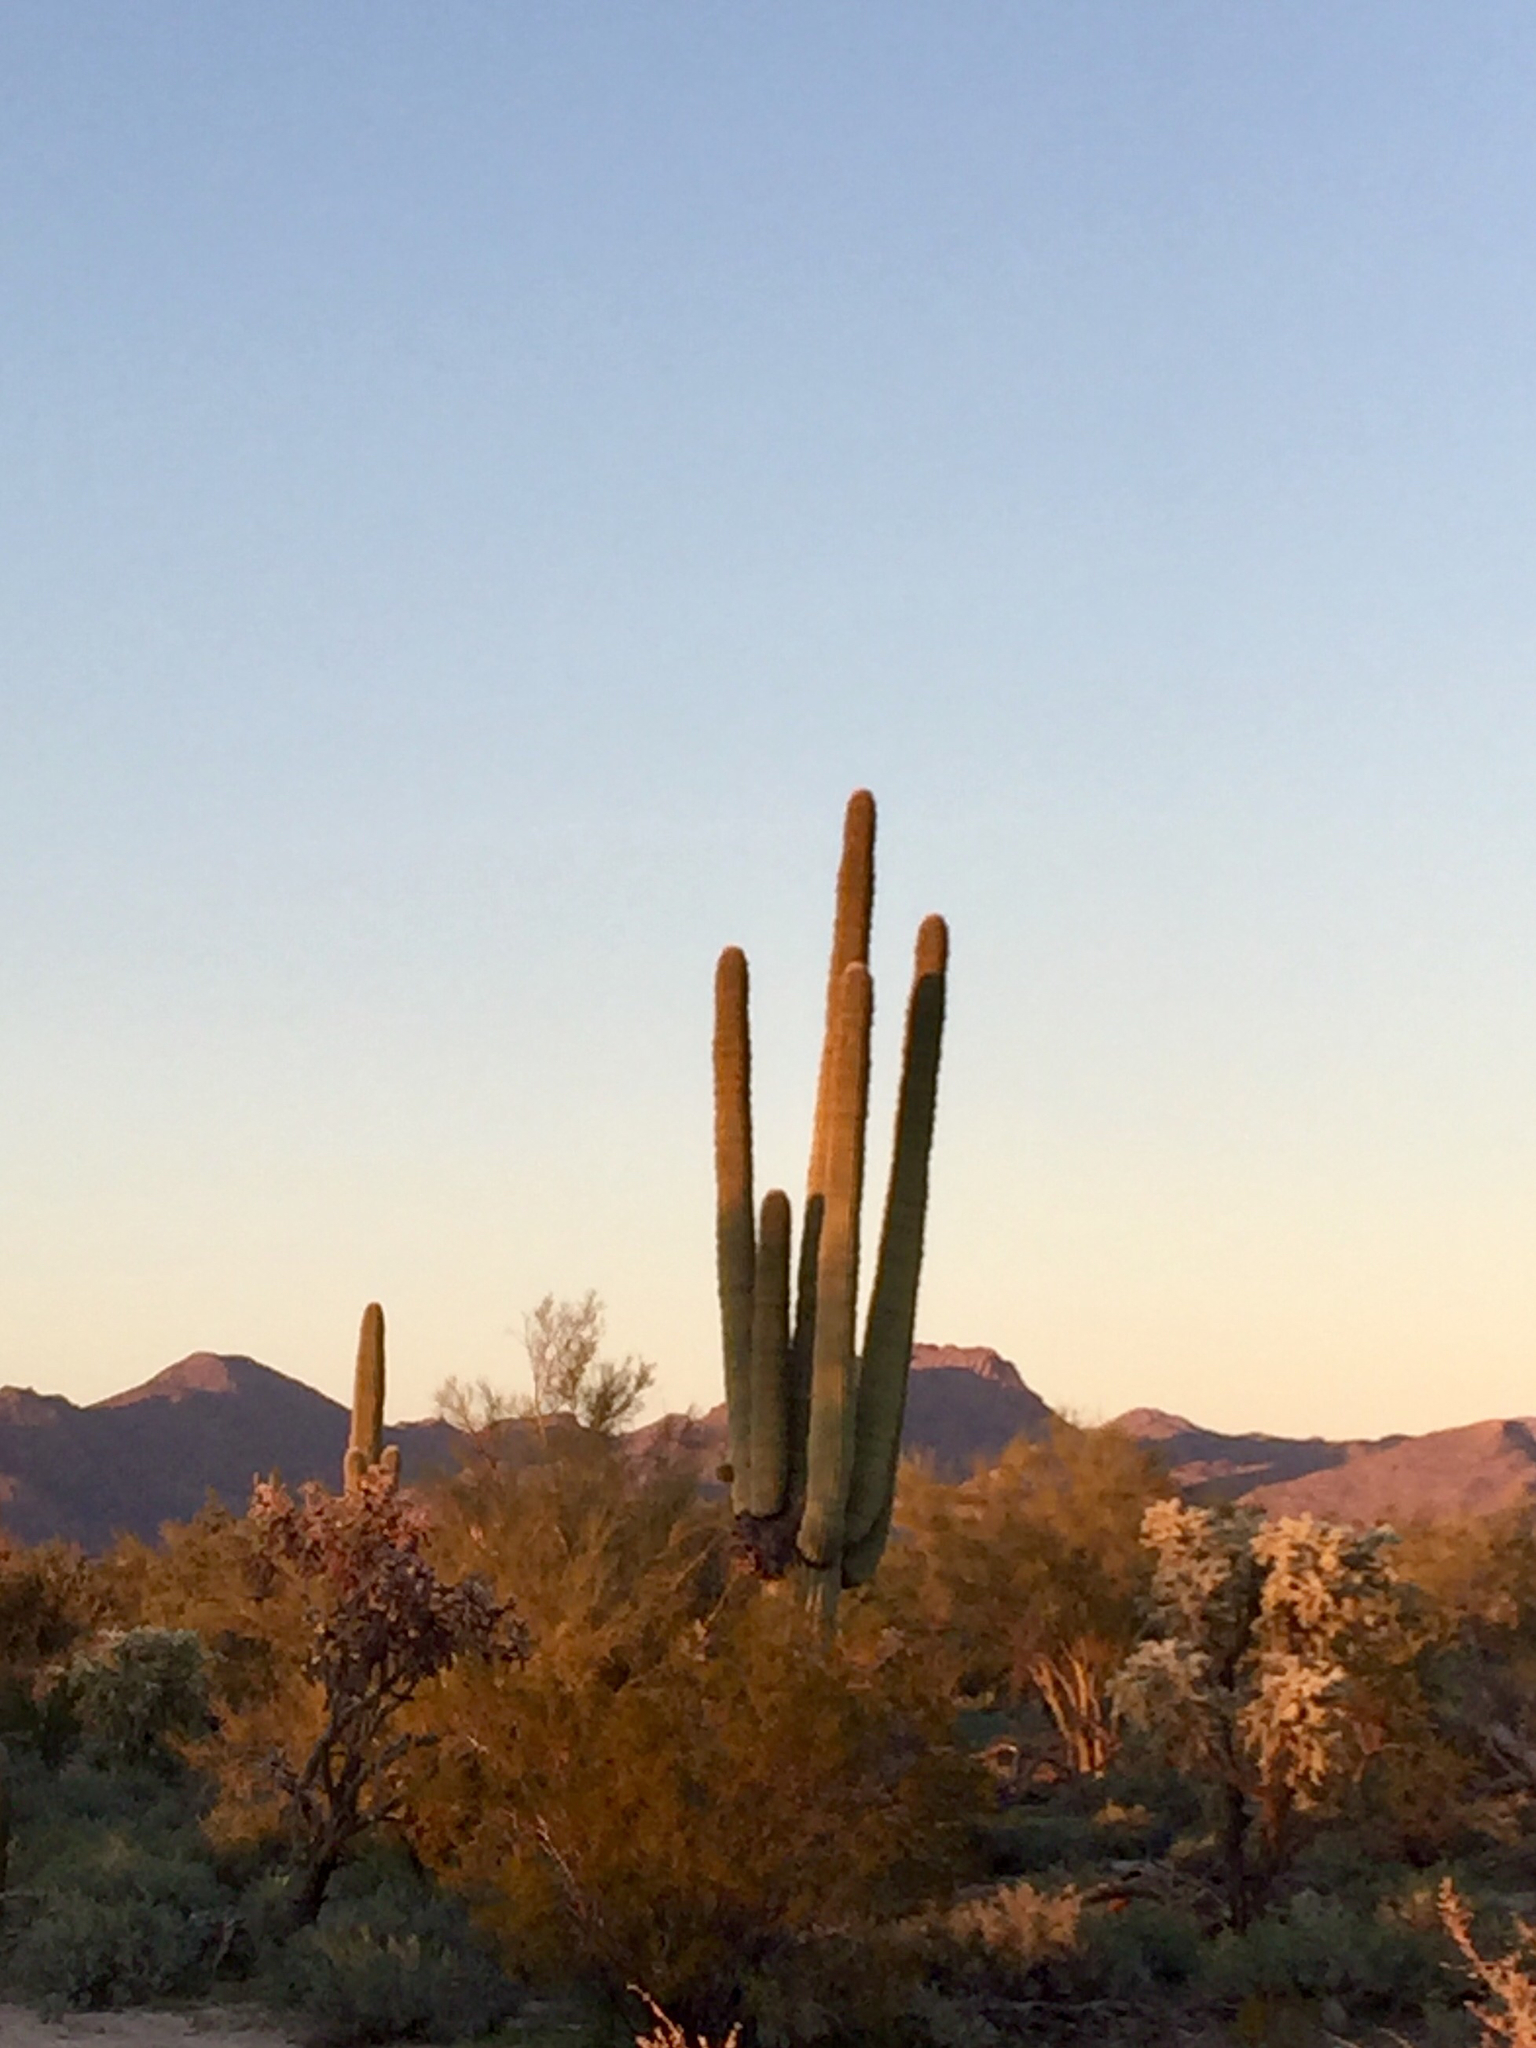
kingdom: Plantae
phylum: Tracheophyta
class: Magnoliopsida
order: Caryophyllales
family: Cactaceae
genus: Carnegiea
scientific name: Carnegiea gigantea
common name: Saguaro
